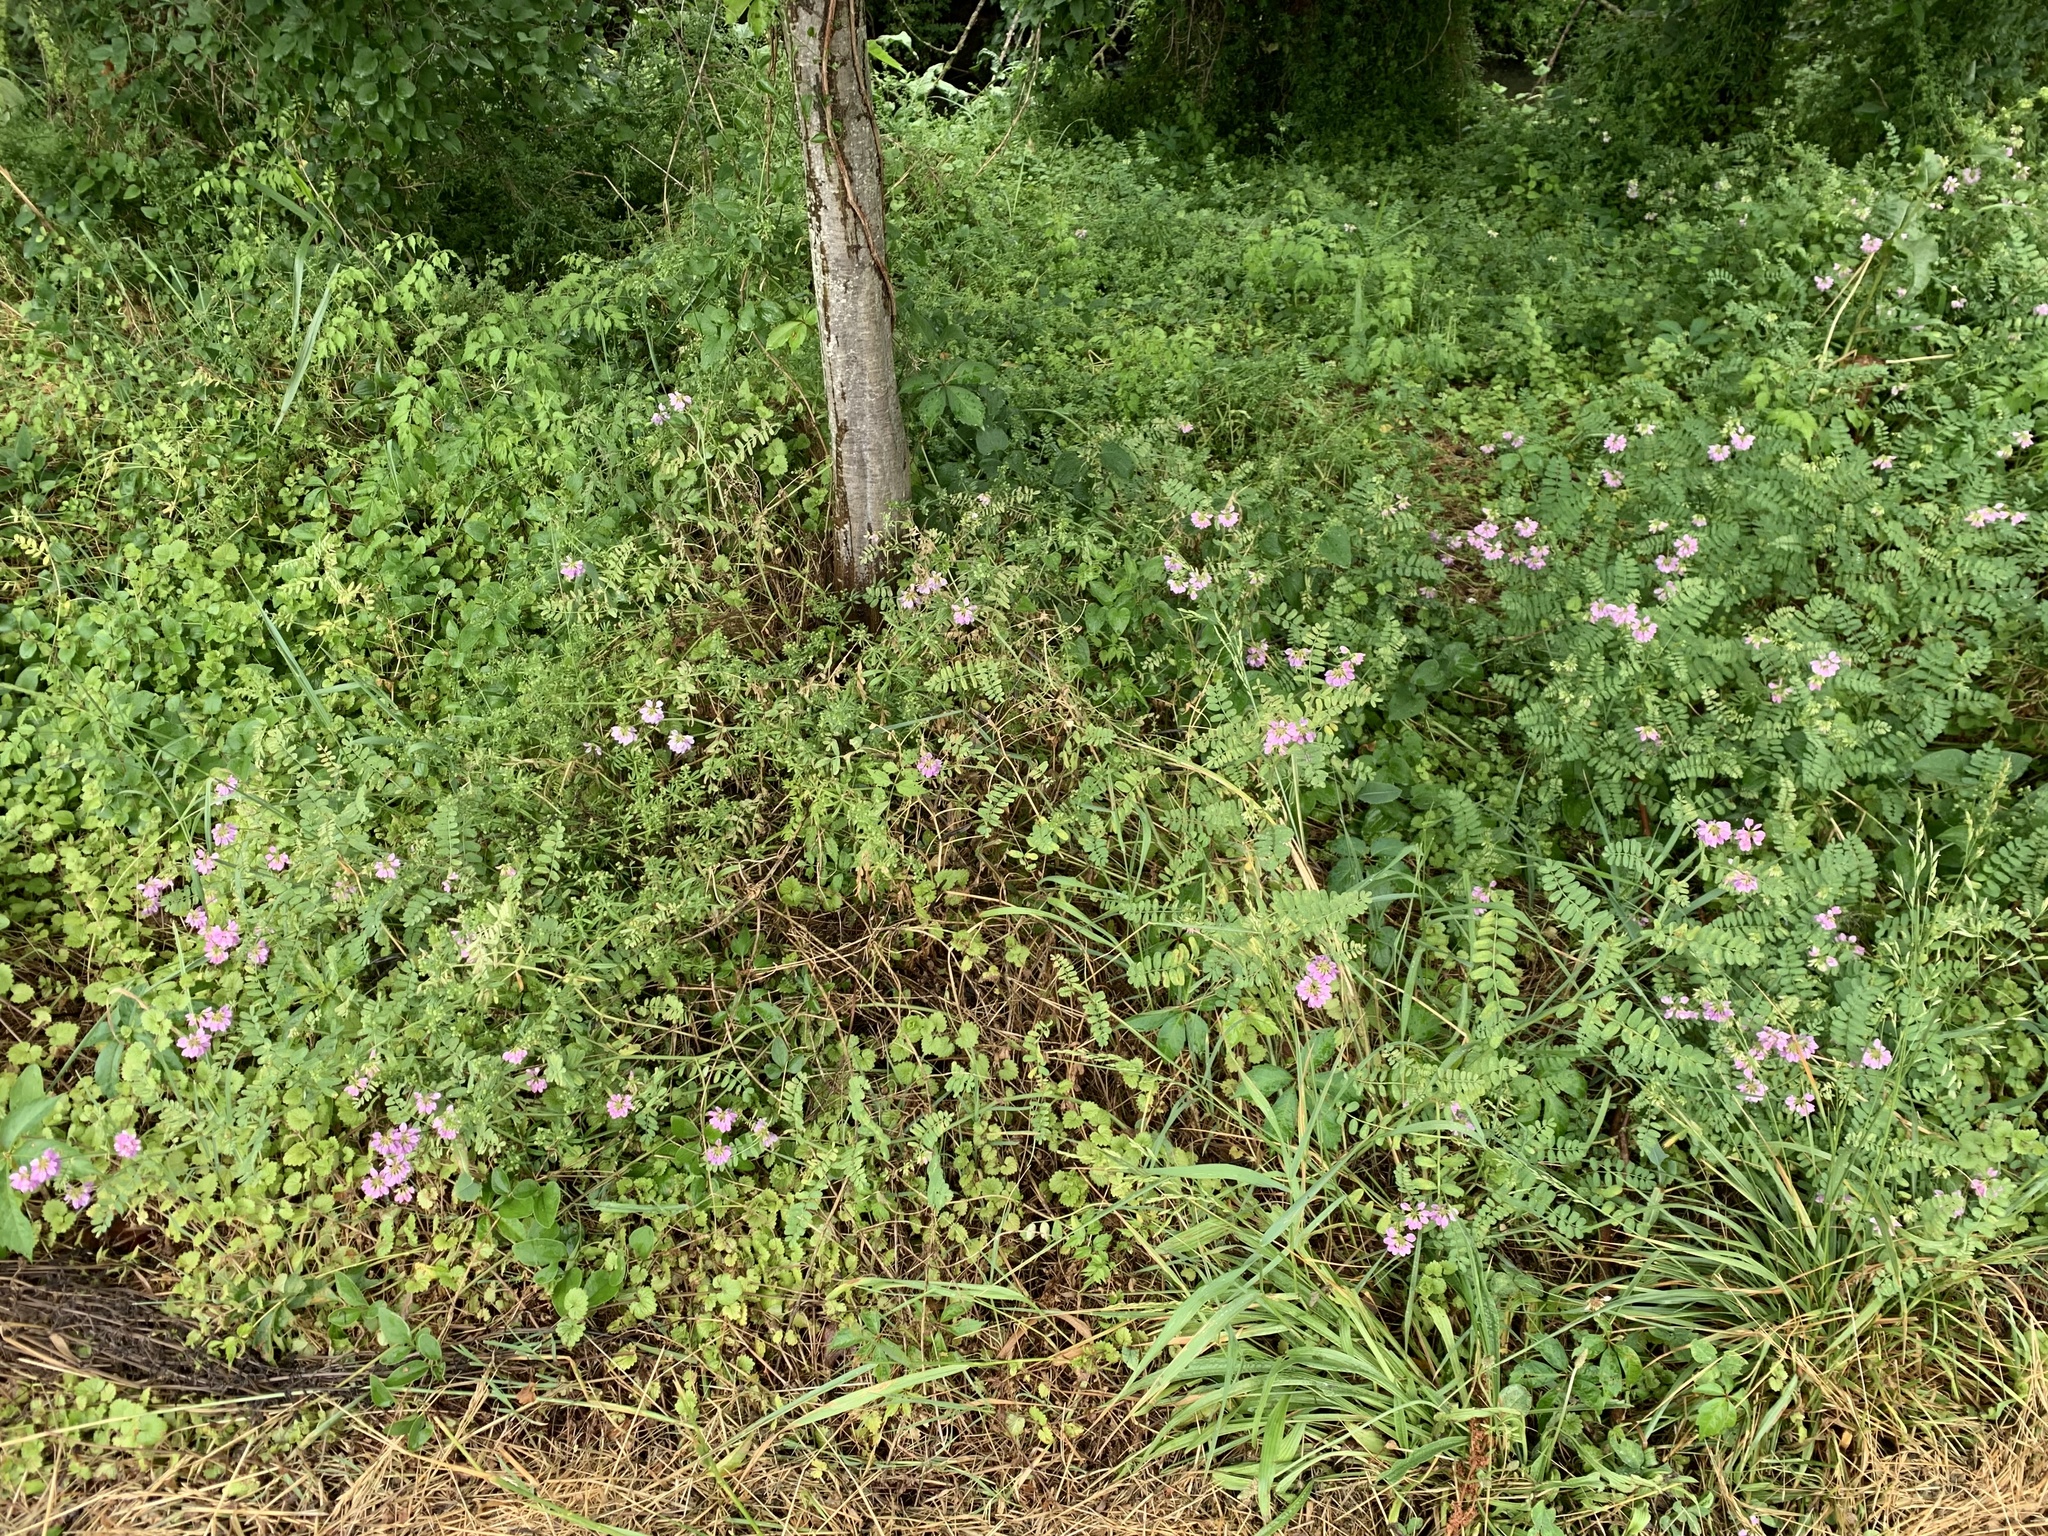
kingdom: Plantae
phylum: Tracheophyta
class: Magnoliopsida
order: Fabales
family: Fabaceae
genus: Coronilla
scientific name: Coronilla varia
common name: Crownvetch
